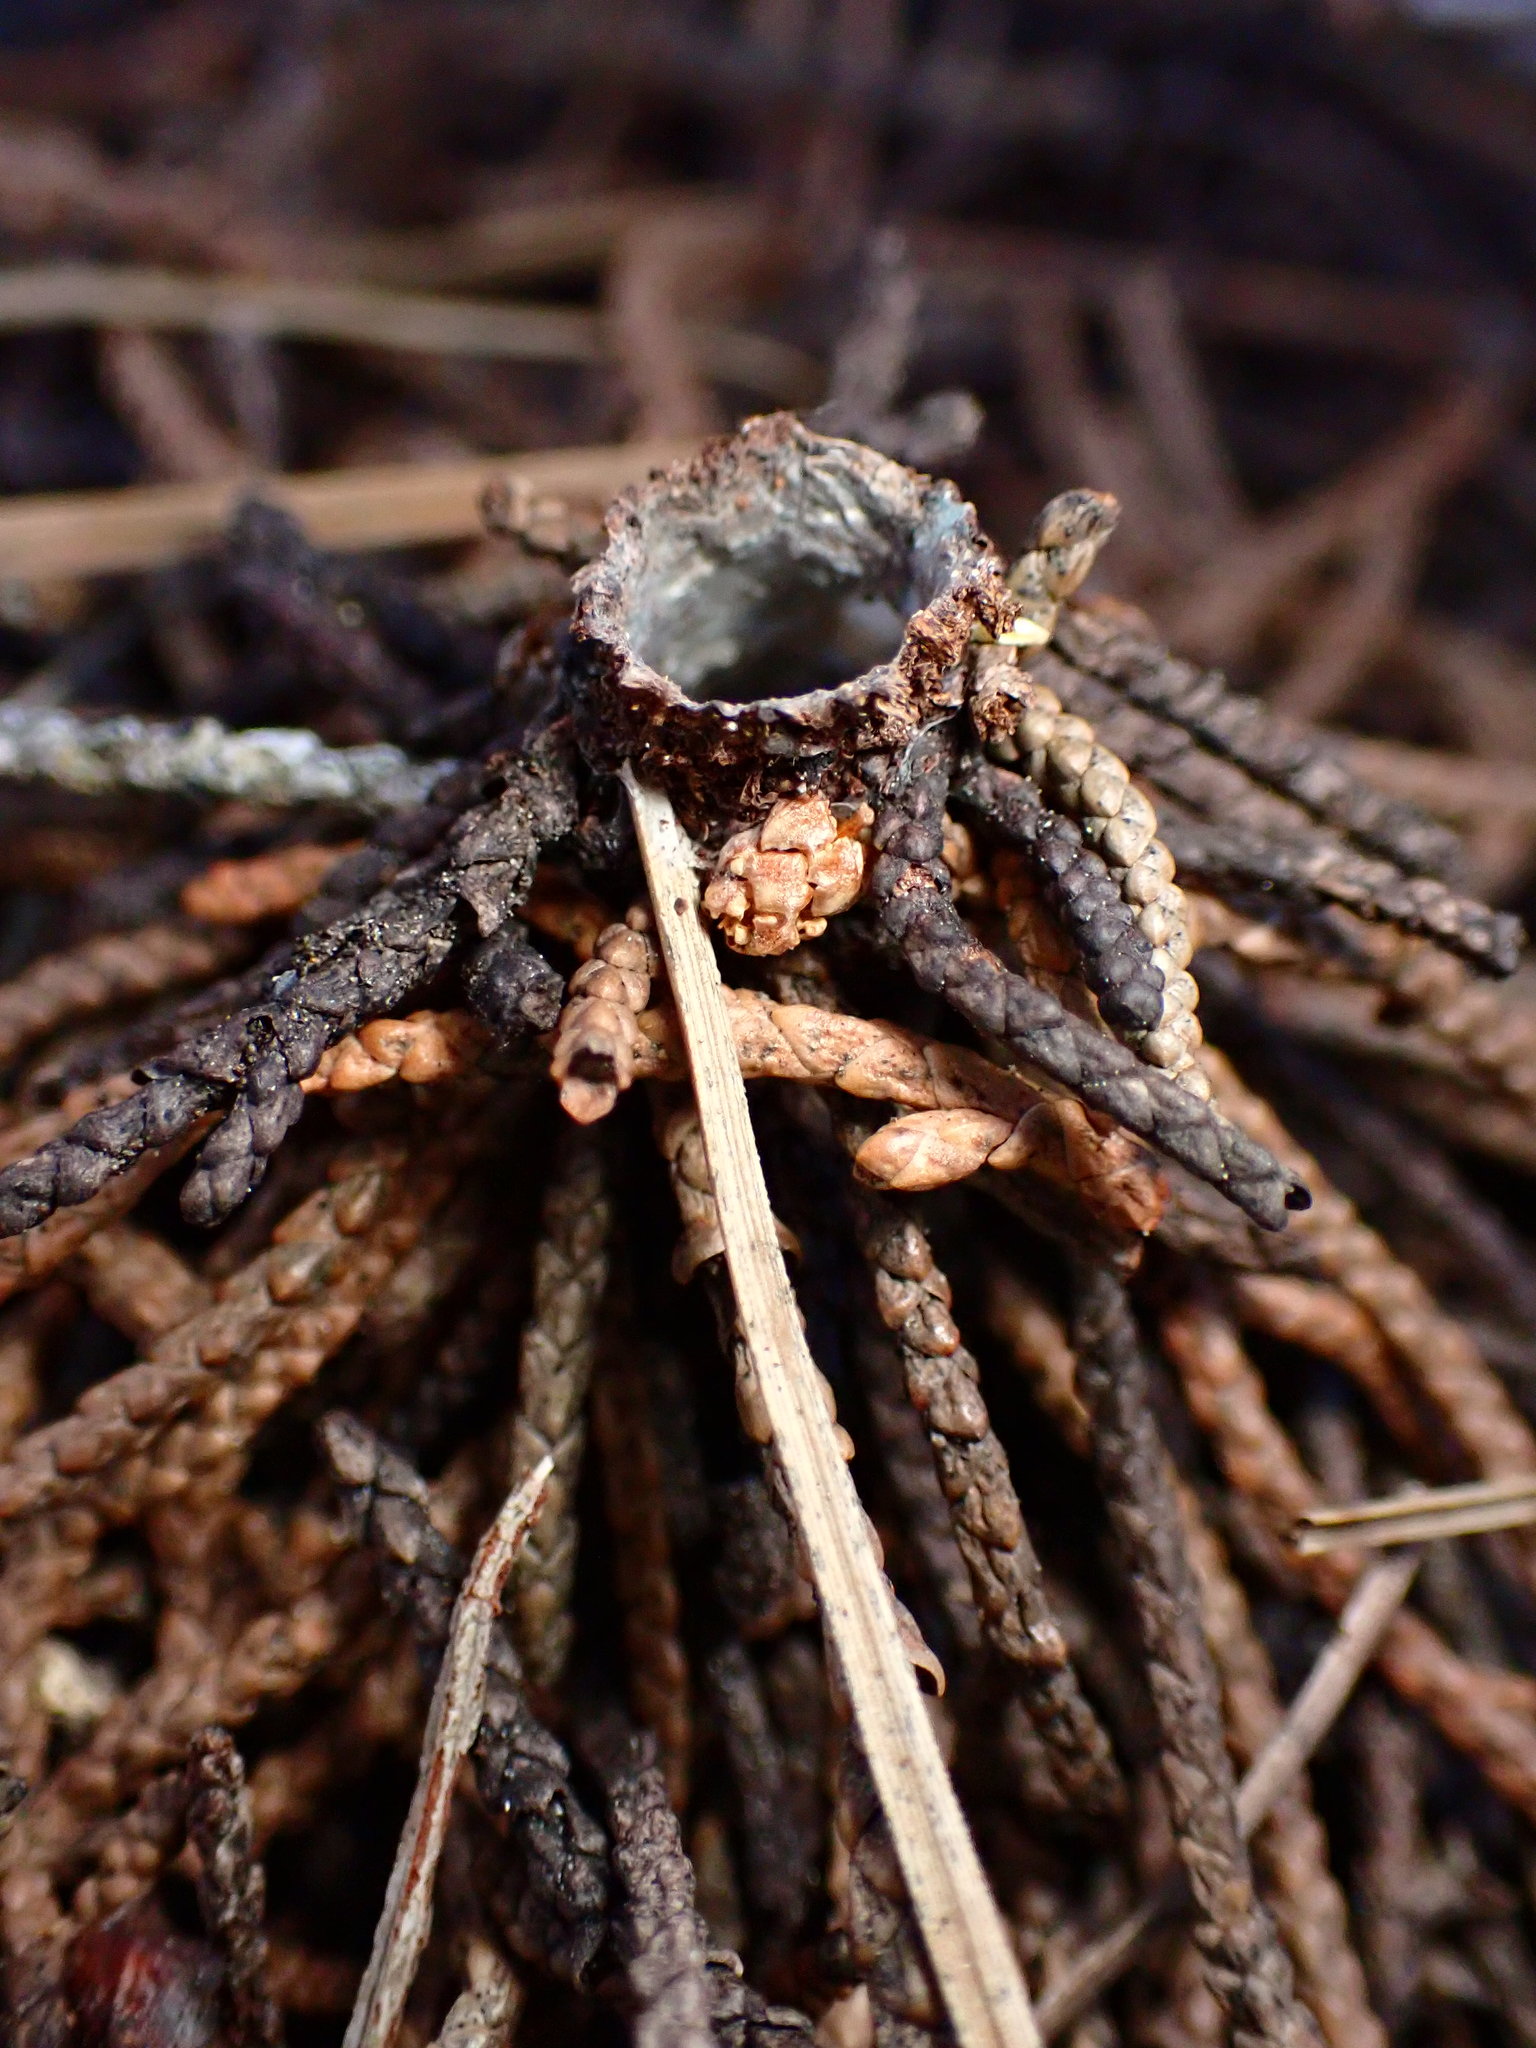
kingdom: Animalia
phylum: Arthropoda
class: Arachnida
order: Araneae
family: Antrodiaetidae
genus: Atypoides
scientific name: Atypoides riversi
